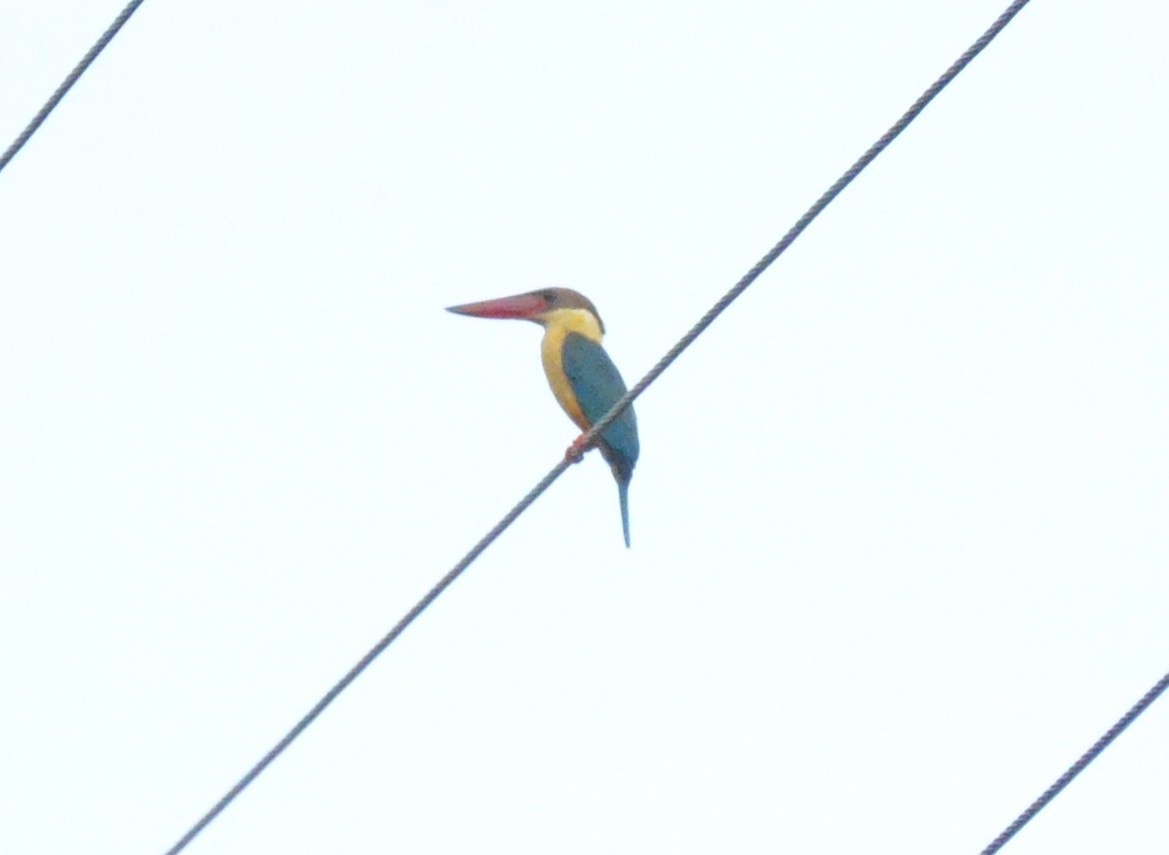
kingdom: Animalia
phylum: Chordata
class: Aves
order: Coraciiformes
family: Alcedinidae
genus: Pelargopsis
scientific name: Pelargopsis capensis
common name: Stork-billed kingfisher
